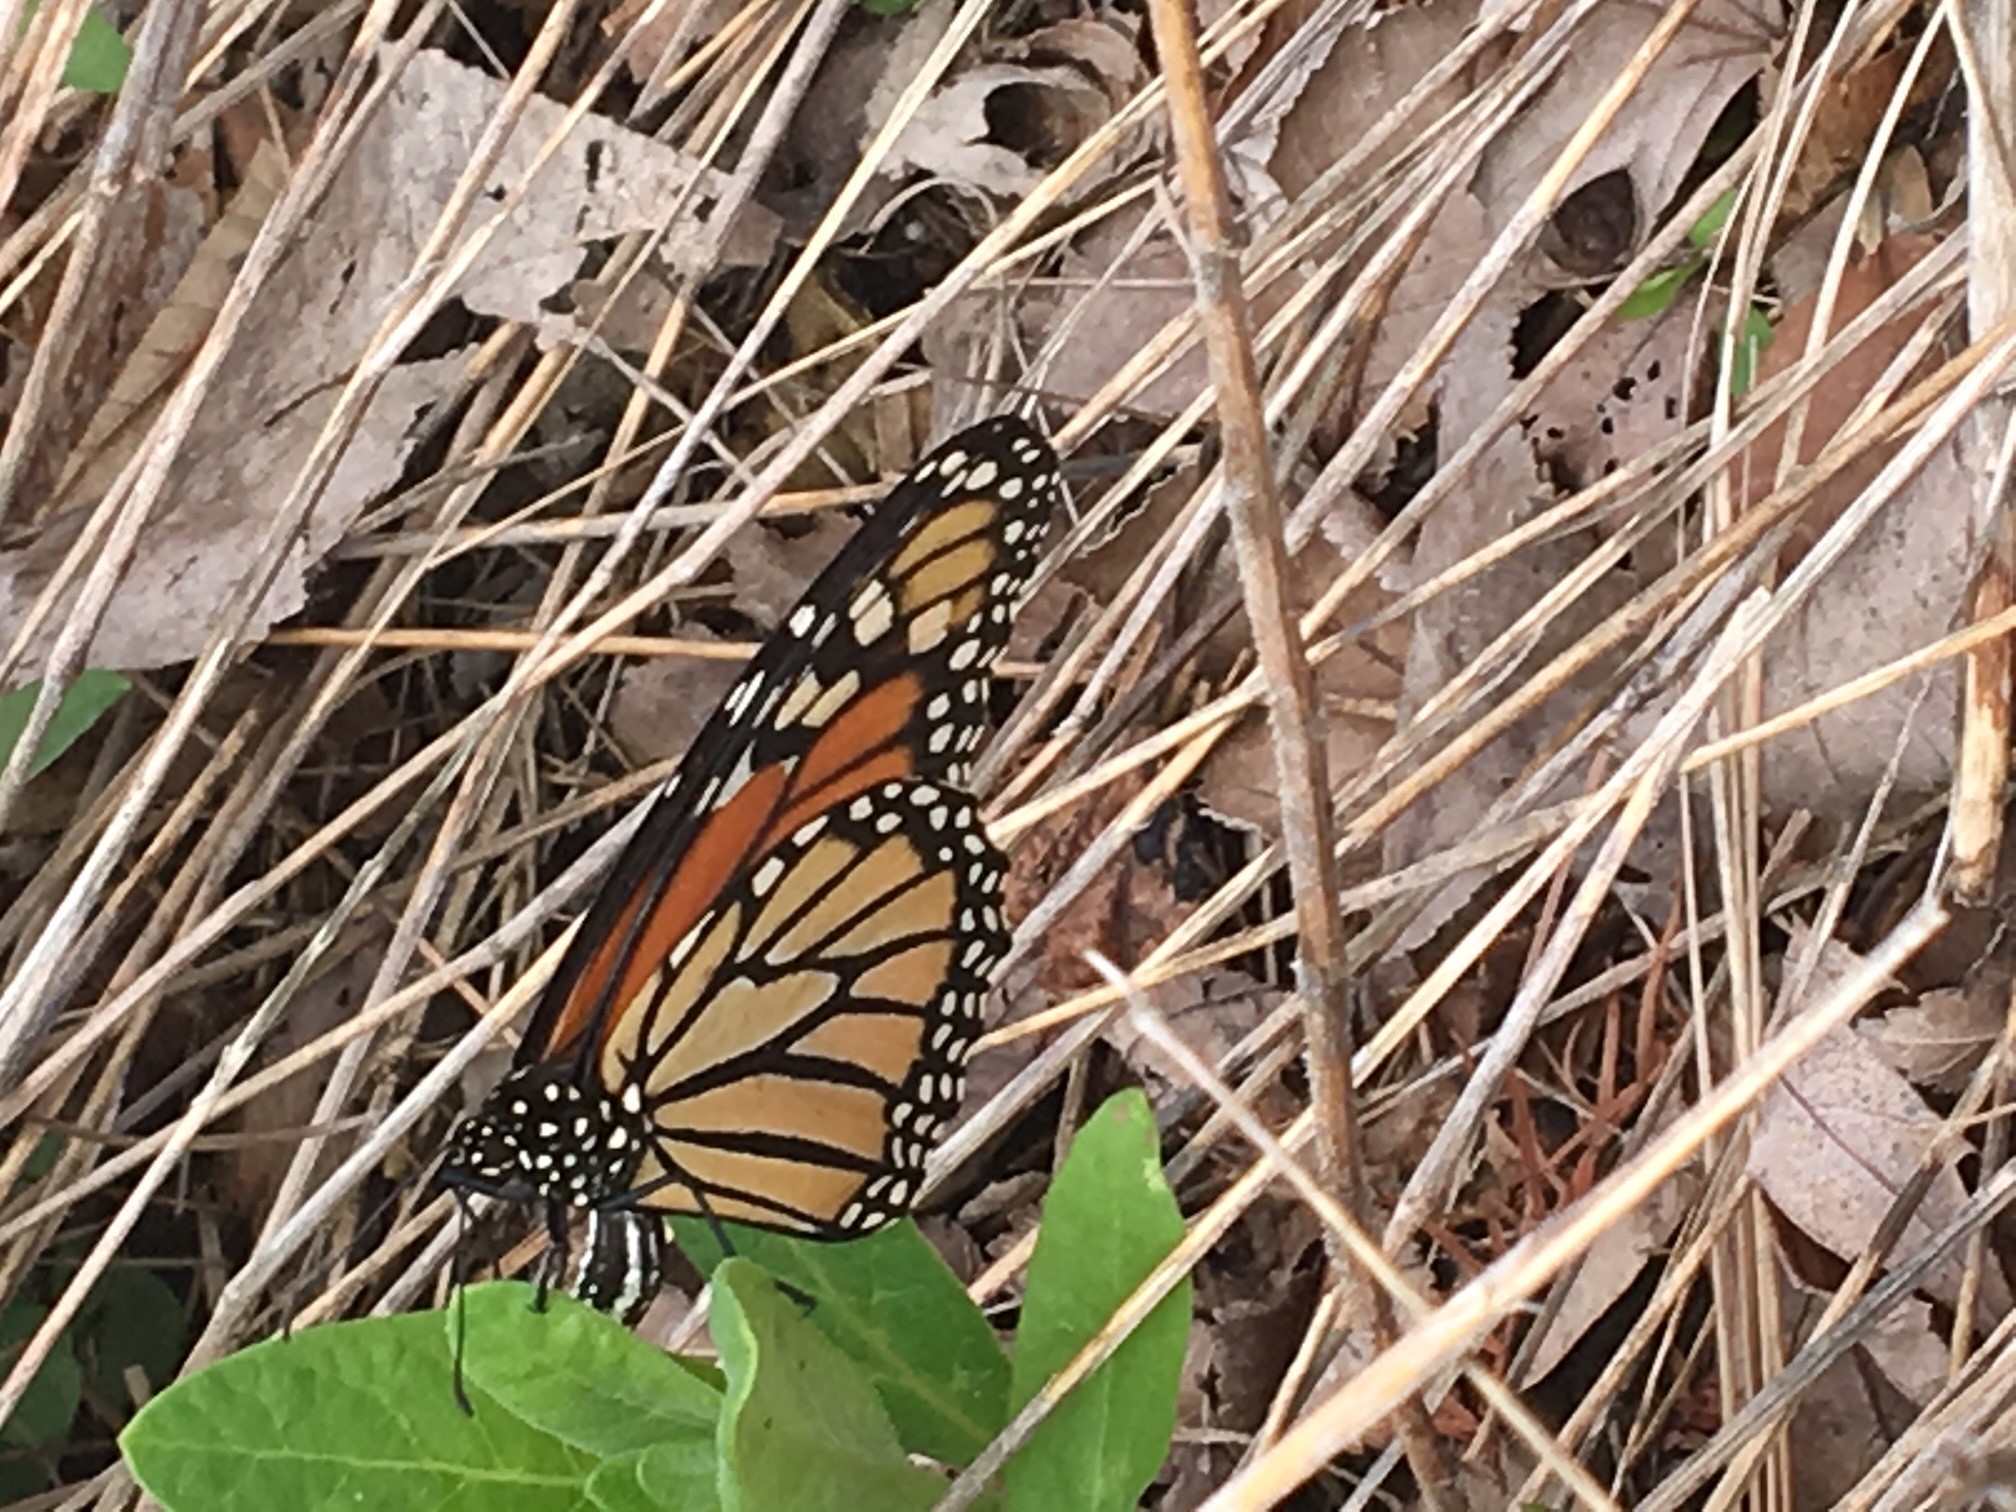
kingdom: Animalia
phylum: Arthropoda
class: Insecta
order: Lepidoptera
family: Nymphalidae
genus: Danaus
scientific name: Danaus plexippus
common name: Monarch
